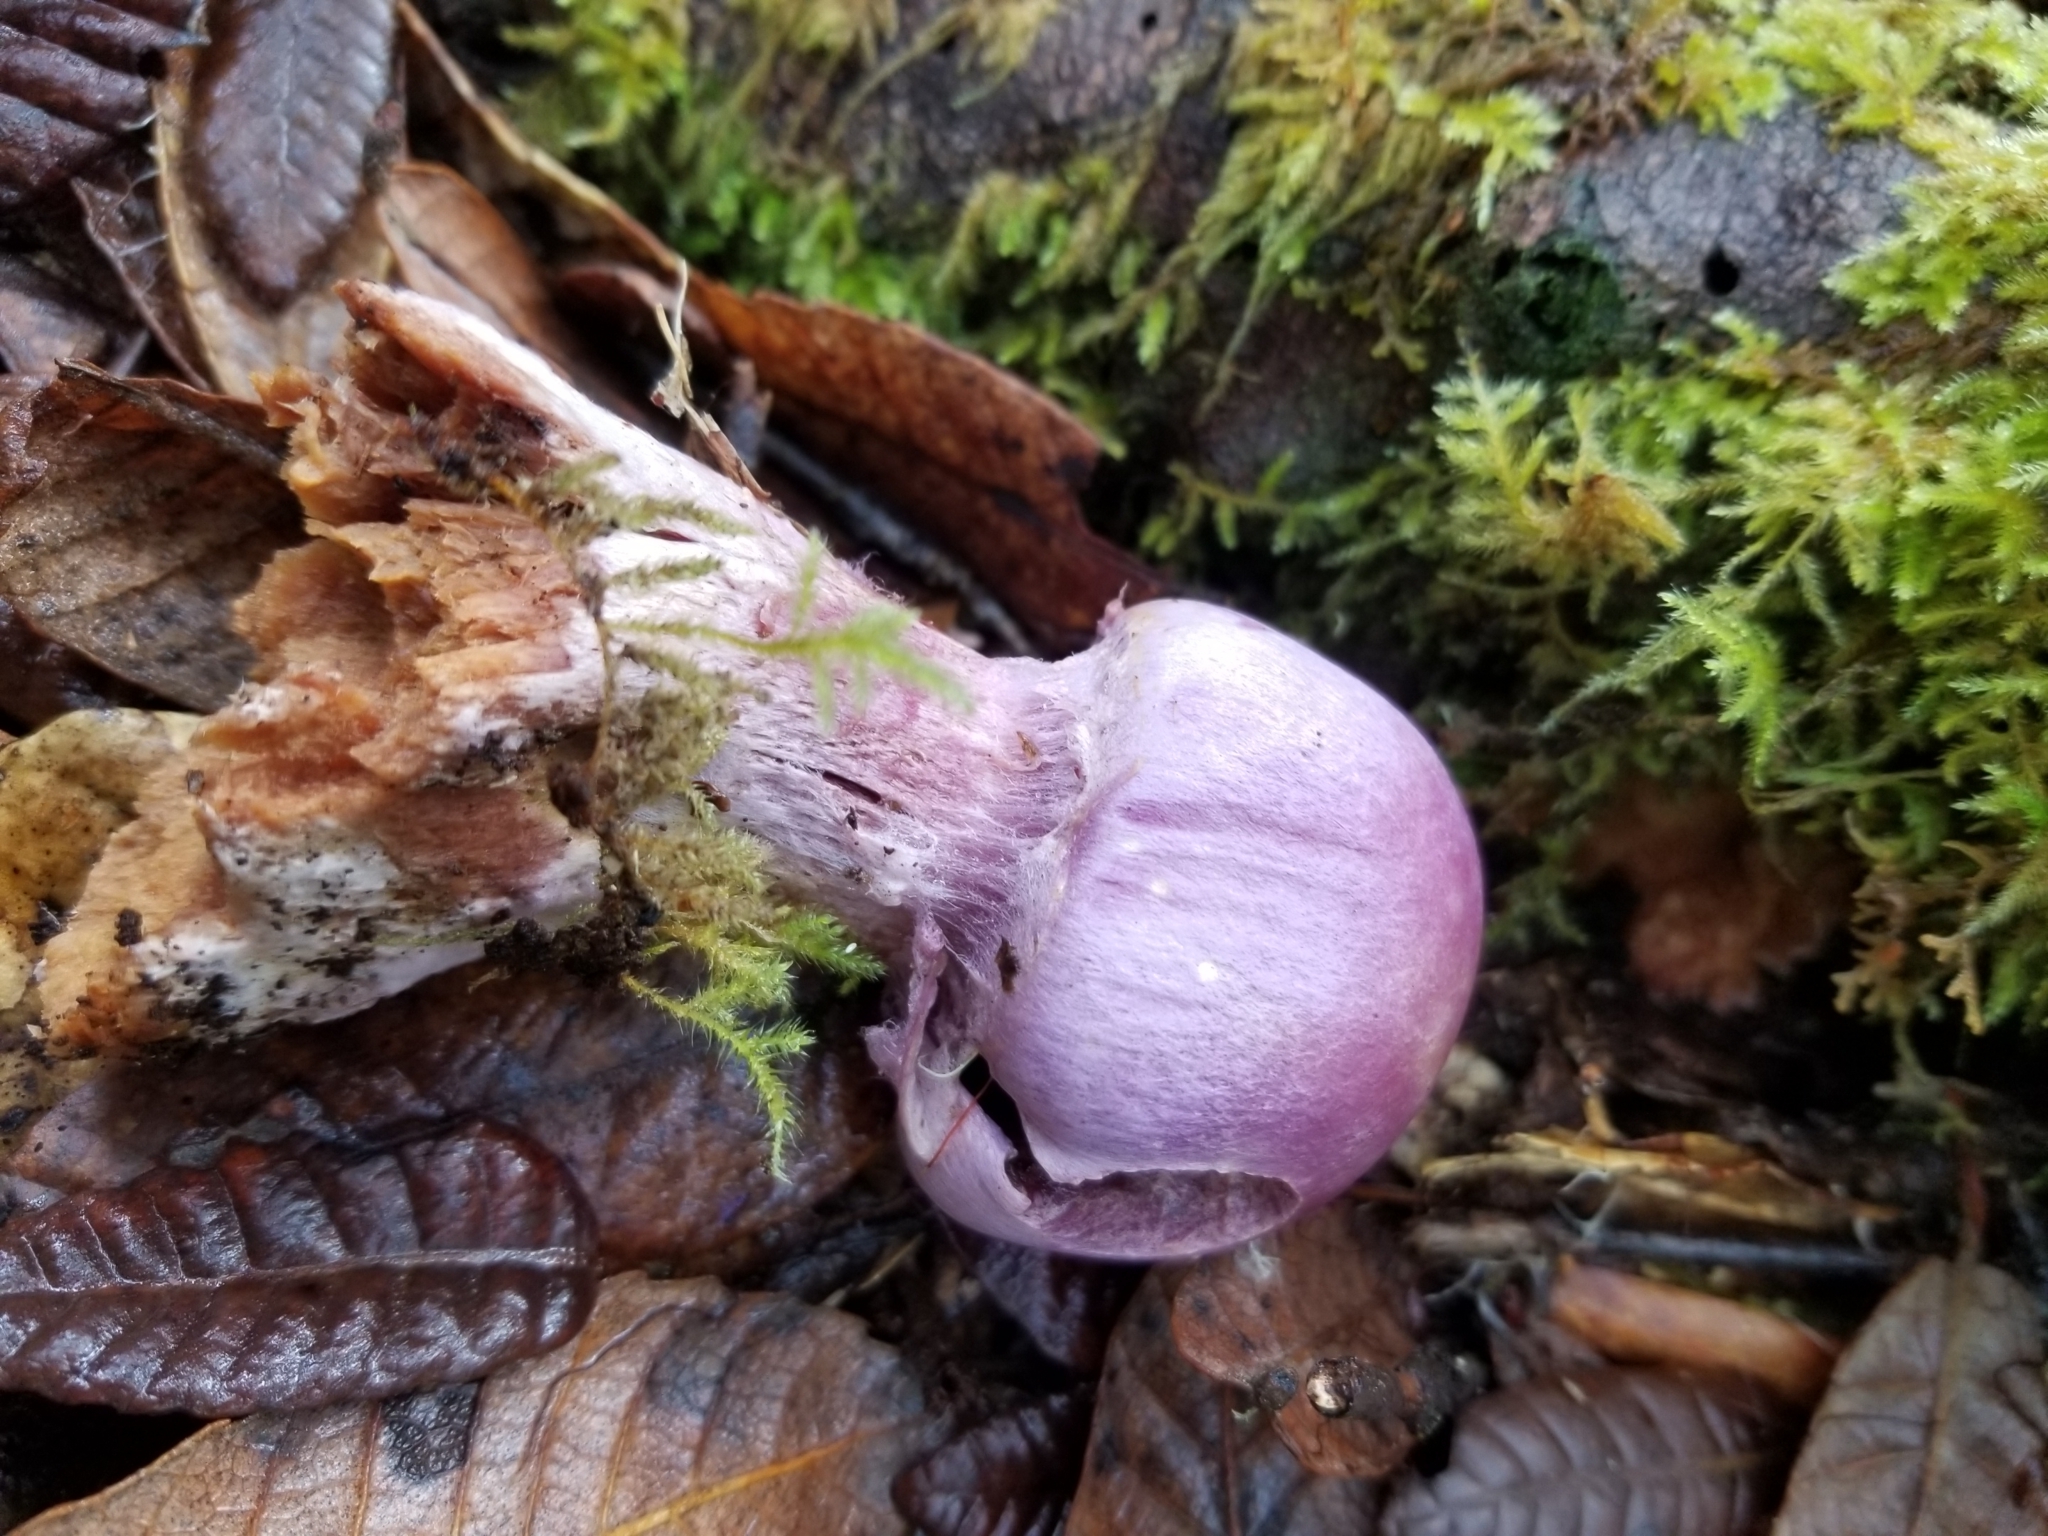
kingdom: Fungi
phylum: Basidiomycota
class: Agaricomycetes
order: Agaricales
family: Cortinariaceae
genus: Cortinarius
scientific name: Cortinarius traganus
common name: Gassy webcap
